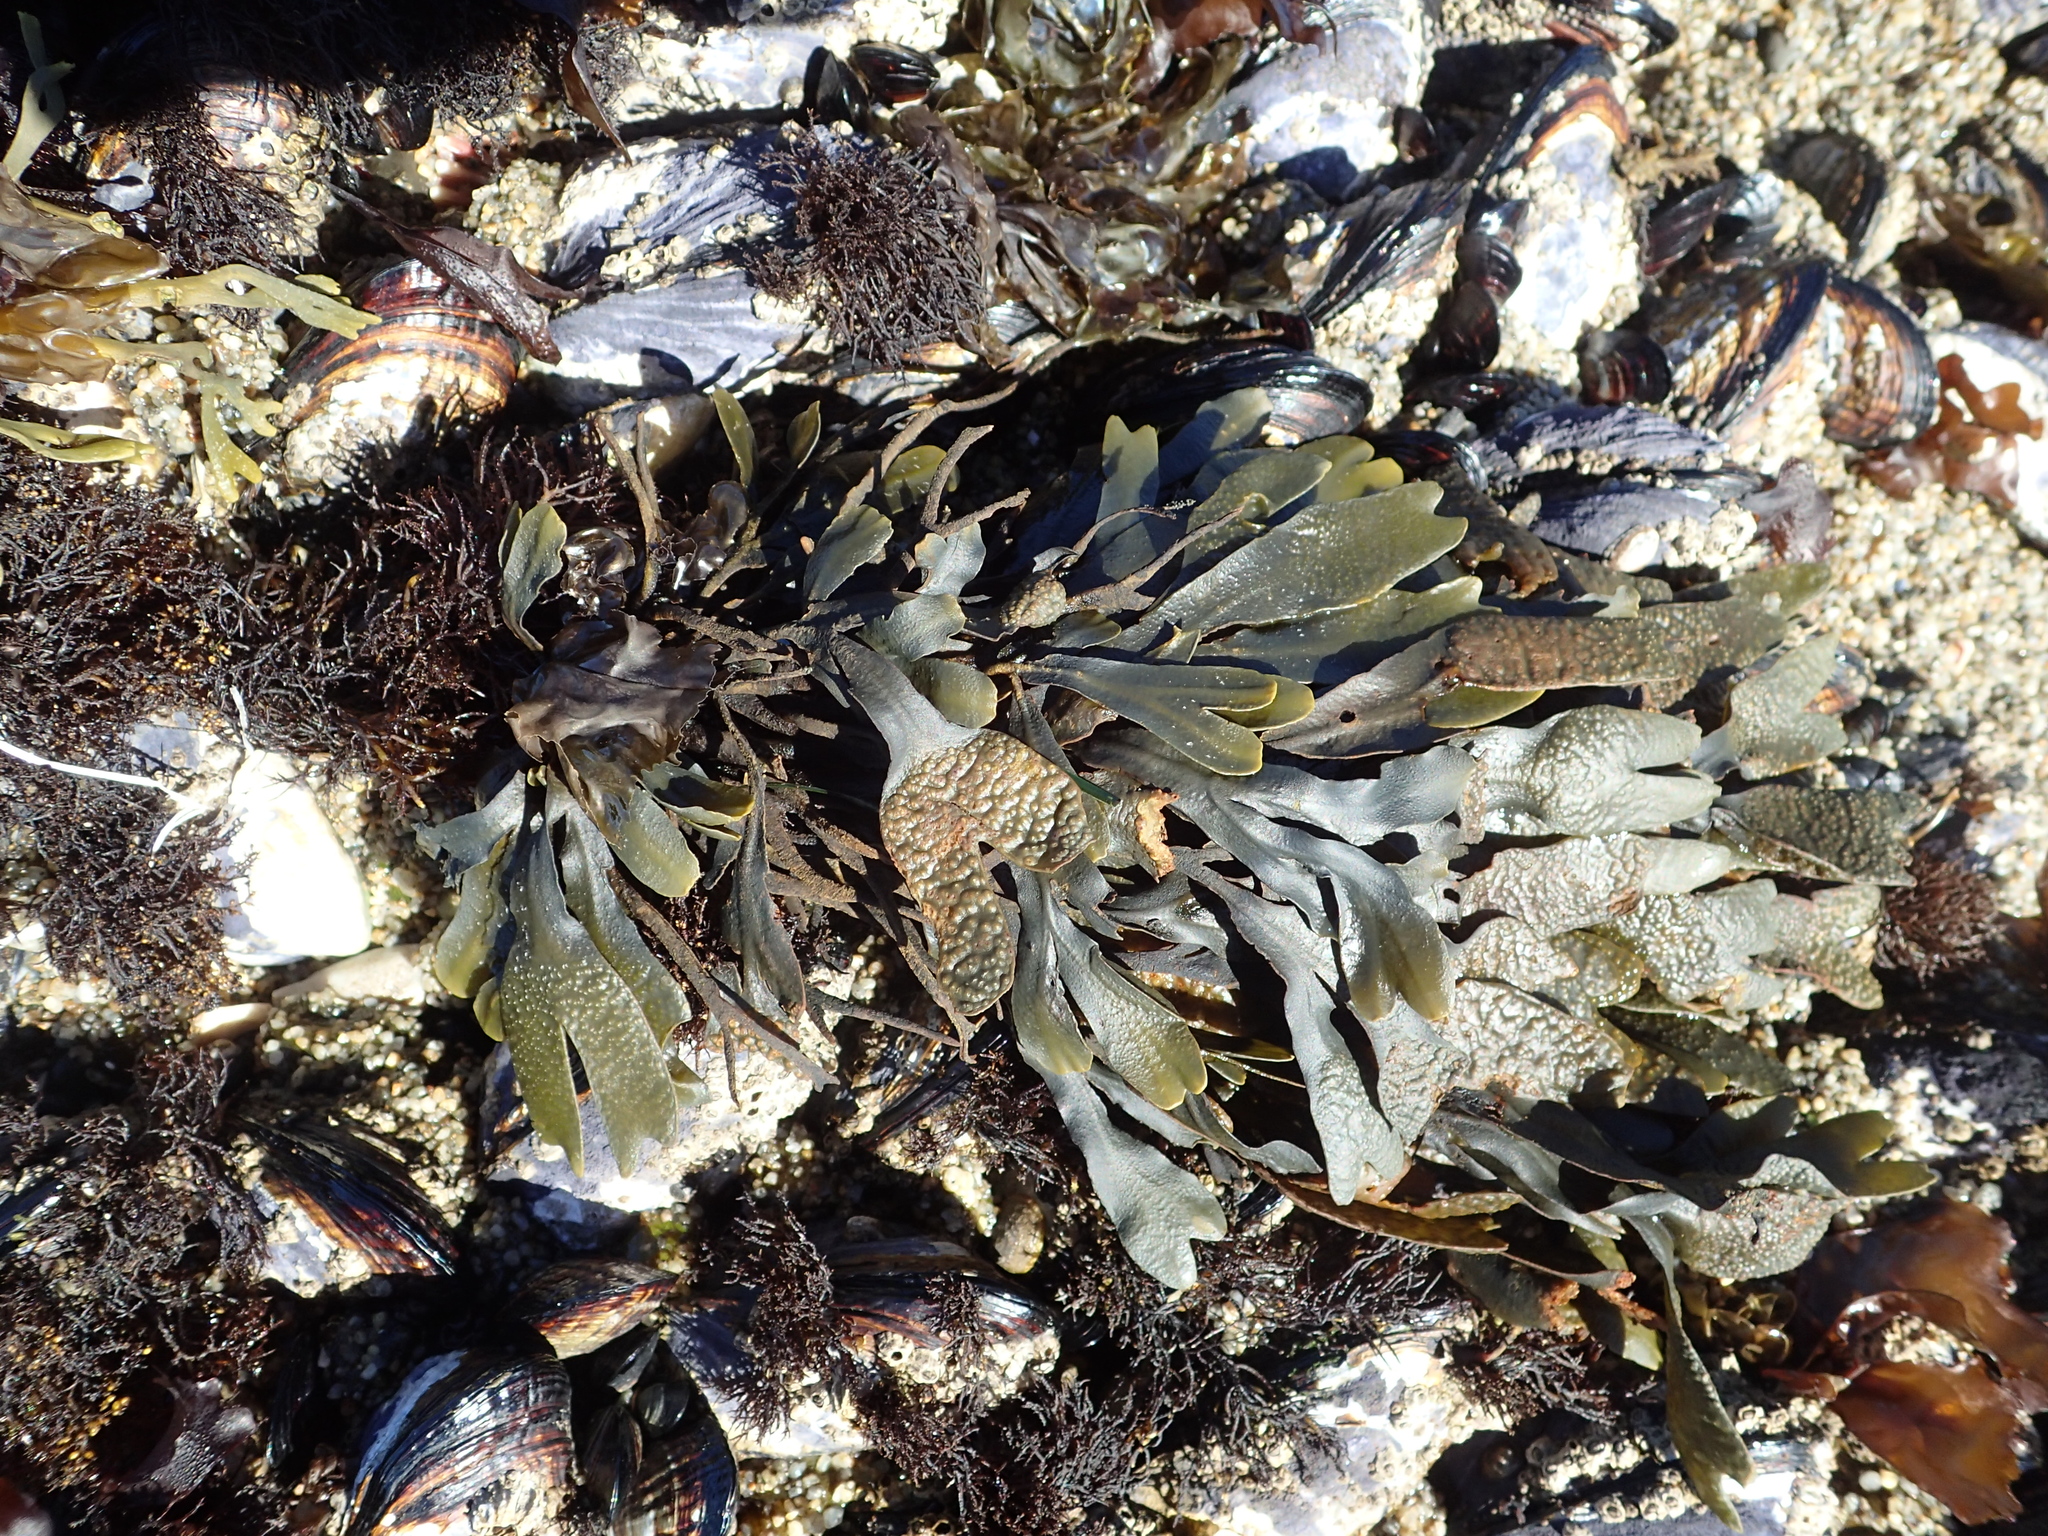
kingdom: Chromista
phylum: Ochrophyta
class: Phaeophyceae
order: Fucales
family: Fucaceae
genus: Fucus
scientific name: Fucus distichus
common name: Rockweed
